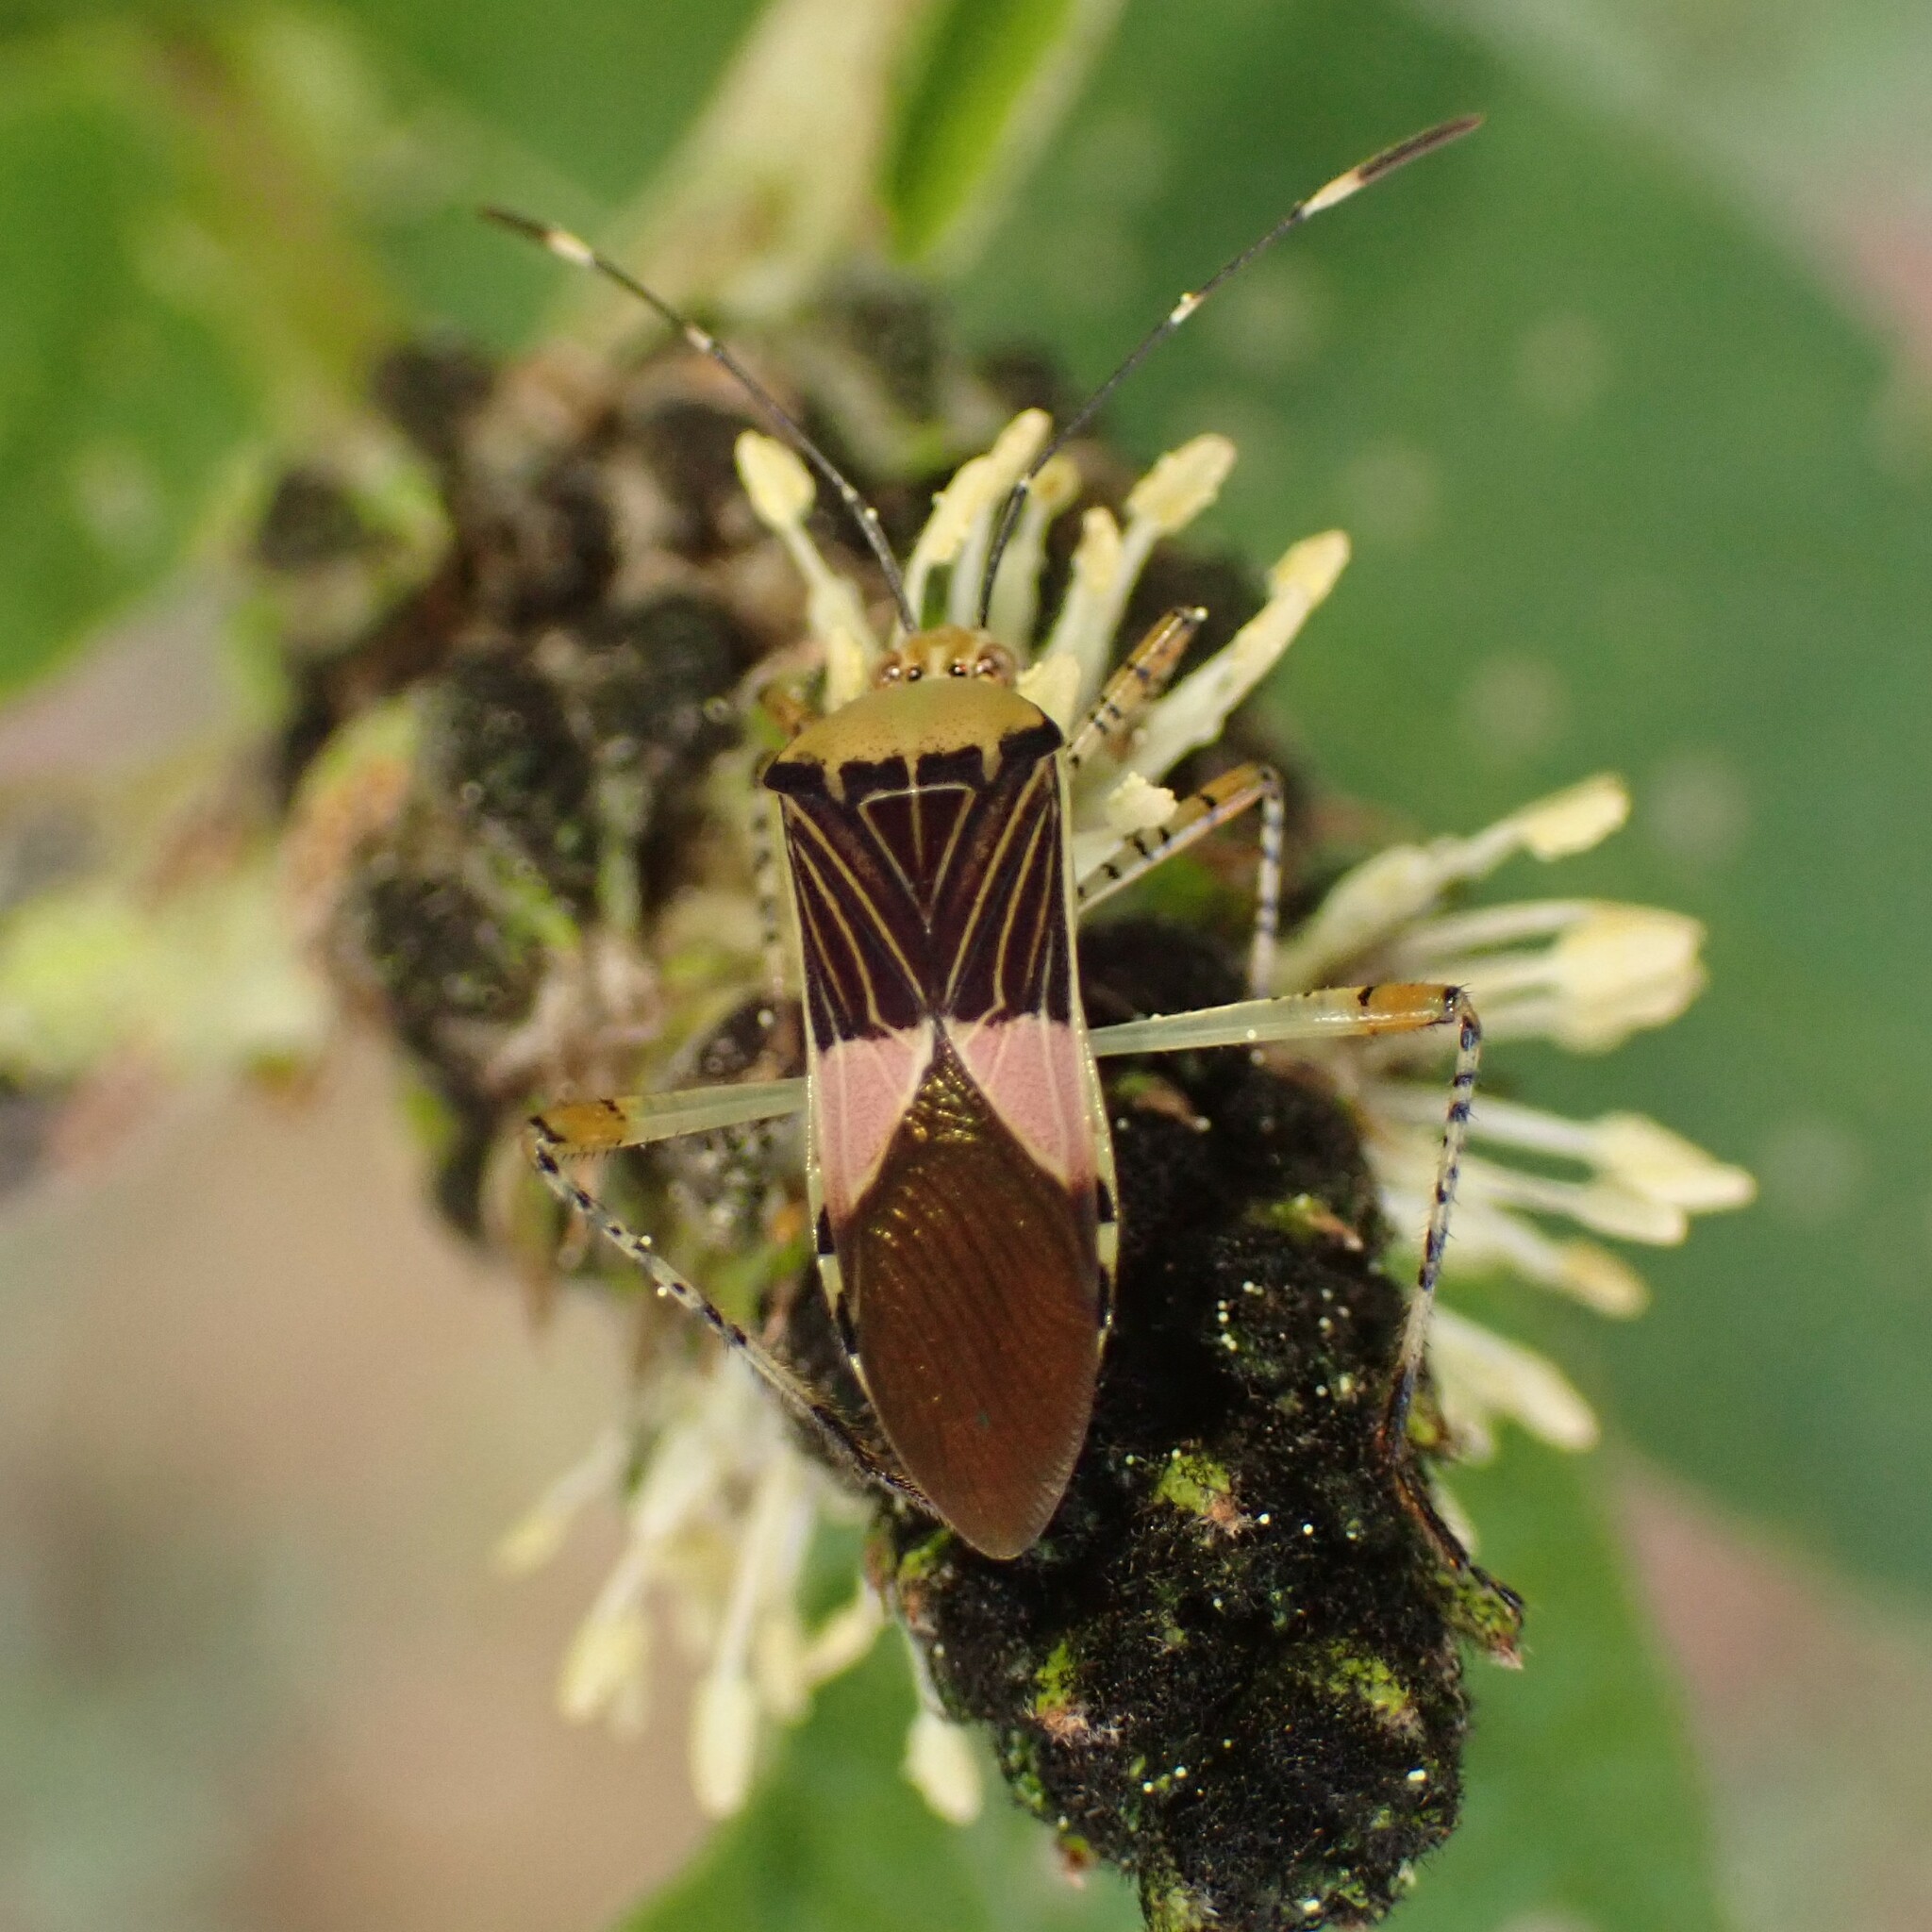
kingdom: Animalia
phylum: Arthropoda
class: Insecta
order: Hemiptera
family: Coreidae
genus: Hypselonotus
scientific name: Hypselonotus fulvus
